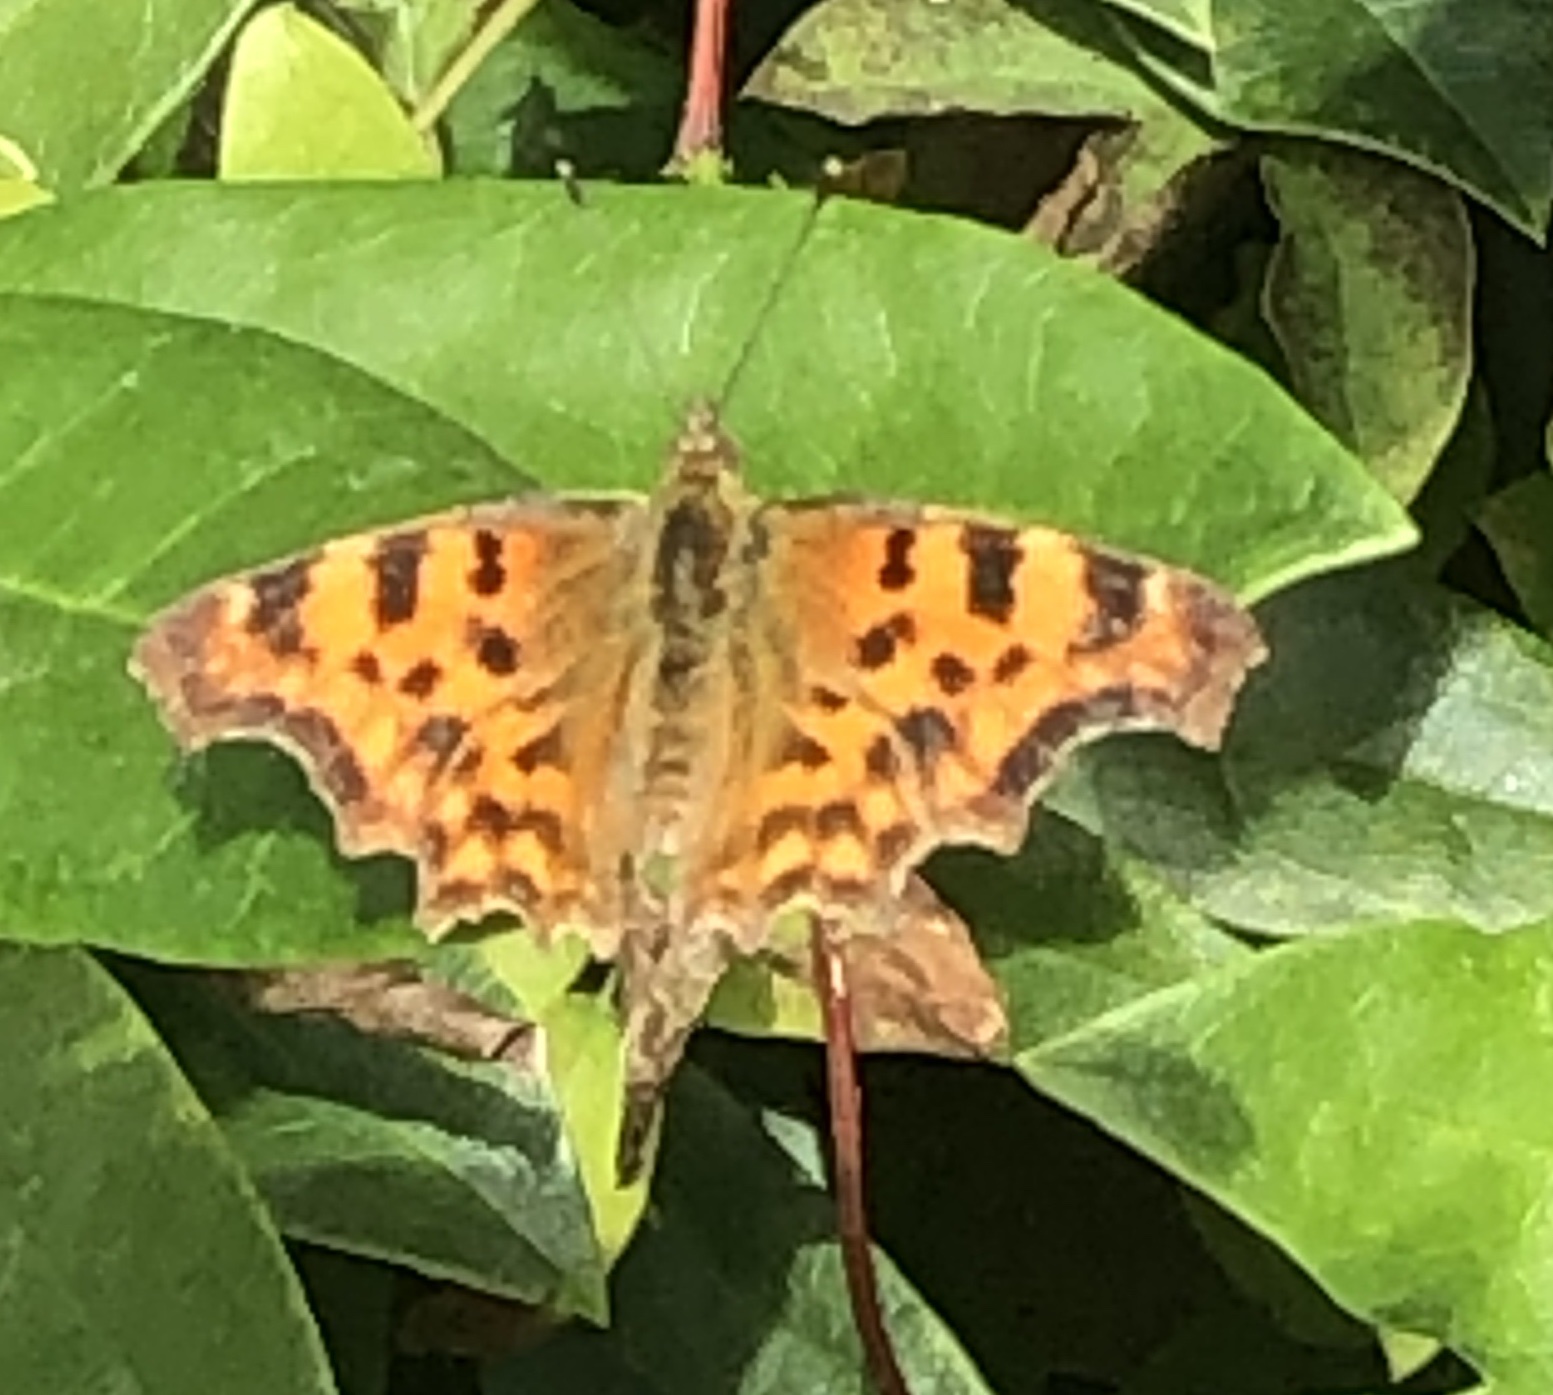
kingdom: Animalia
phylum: Arthropoda
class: Insecta
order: Lepidoptera
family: Nymphalidae
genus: Polygonia
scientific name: Polygonia c-album
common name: Comma
